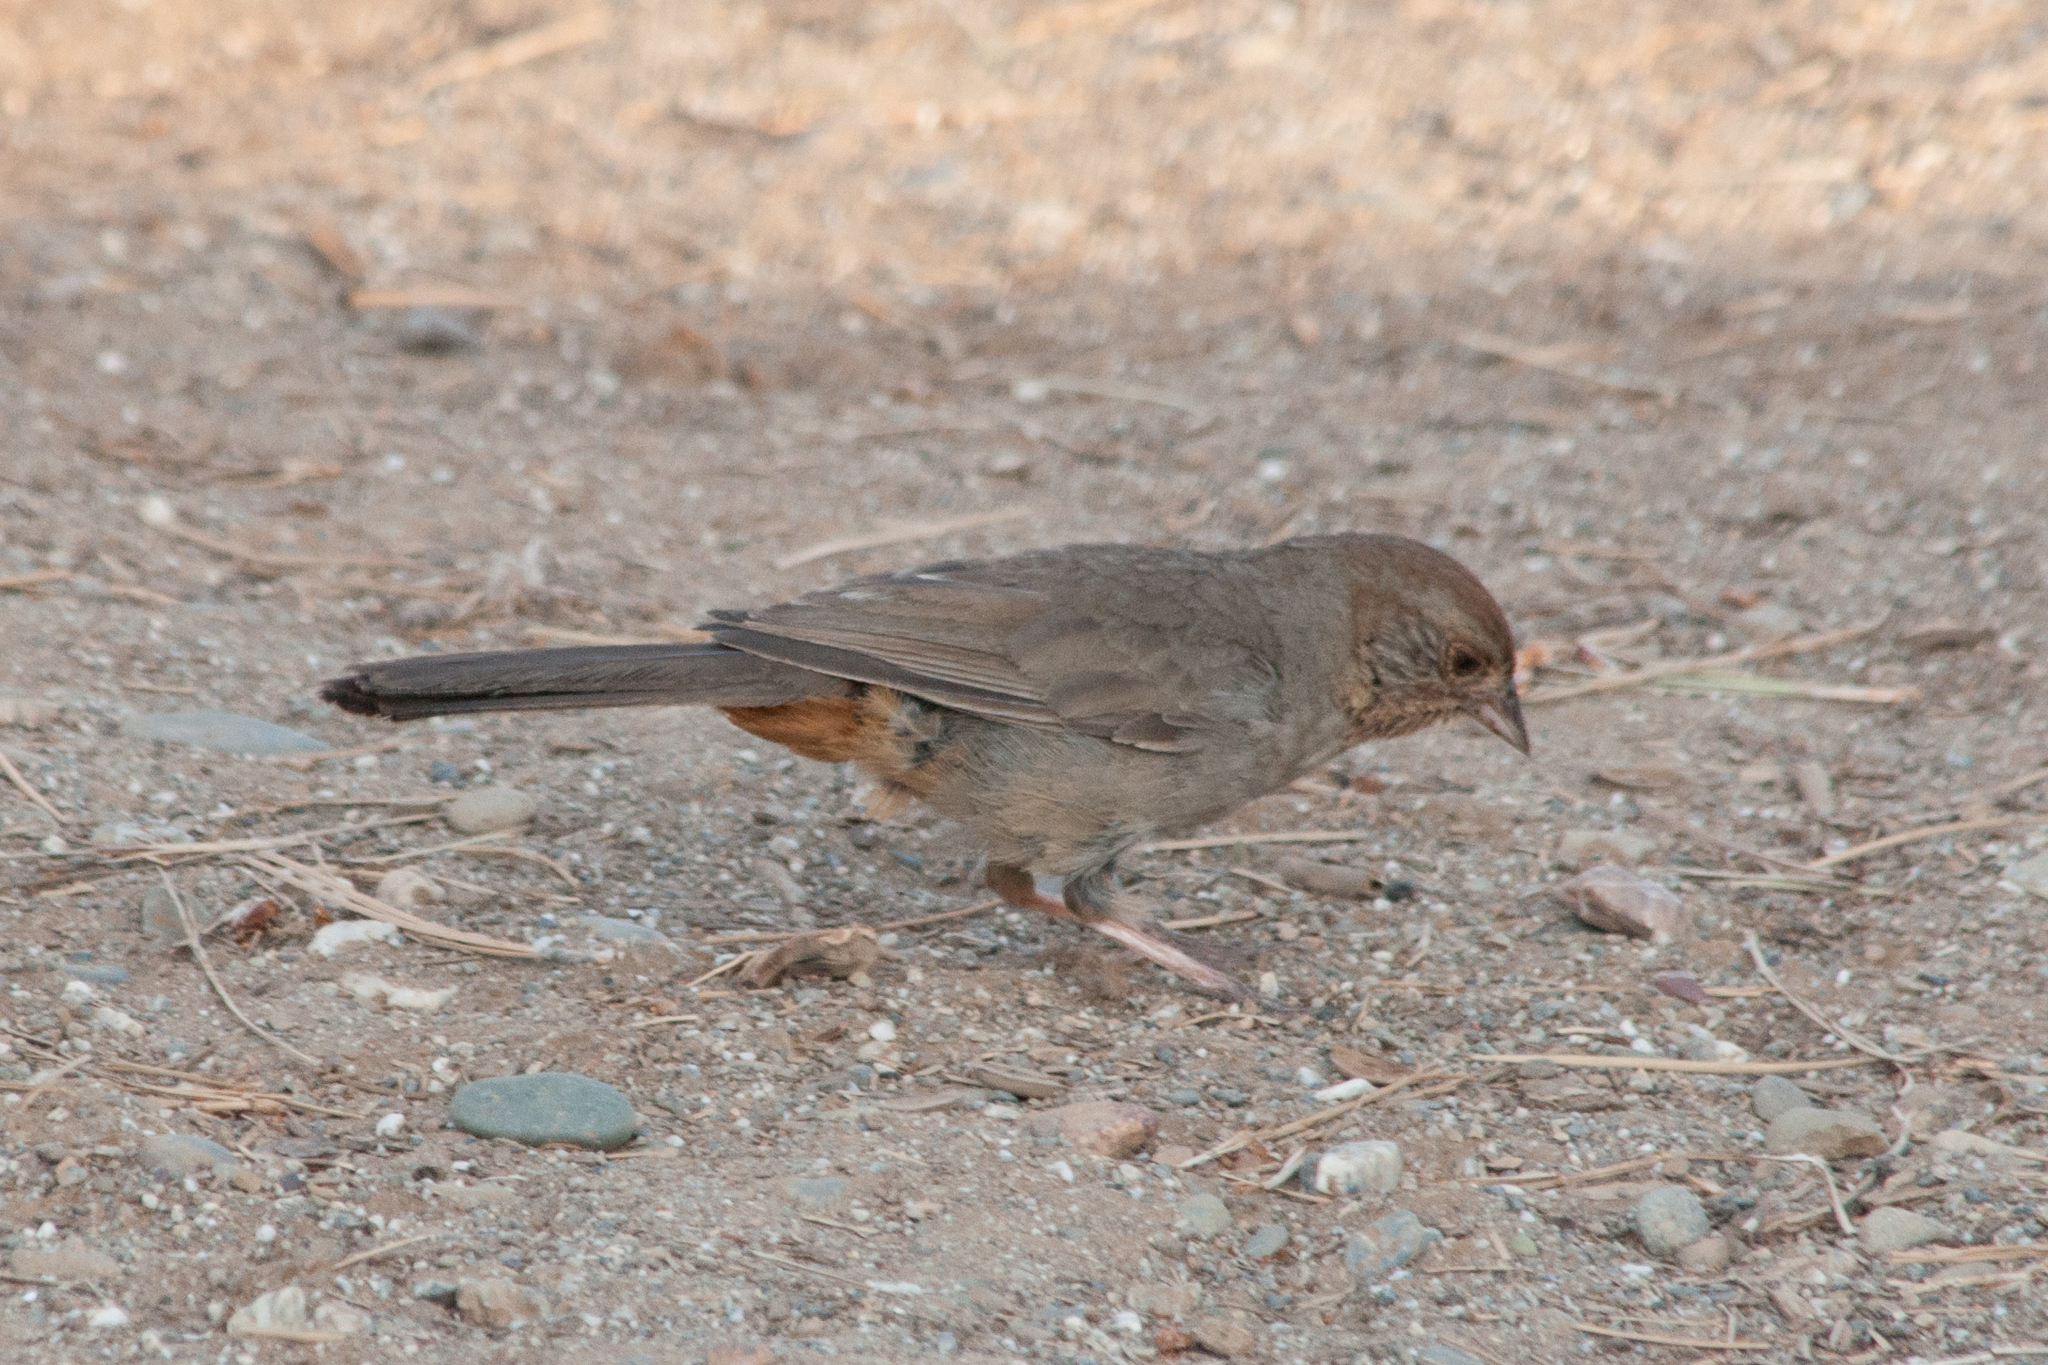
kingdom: Animalia
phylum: Chordata
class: Aves
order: Passeriformes
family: Passerellidae
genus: Melozone
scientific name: Melozone crissalis
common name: California towhee
